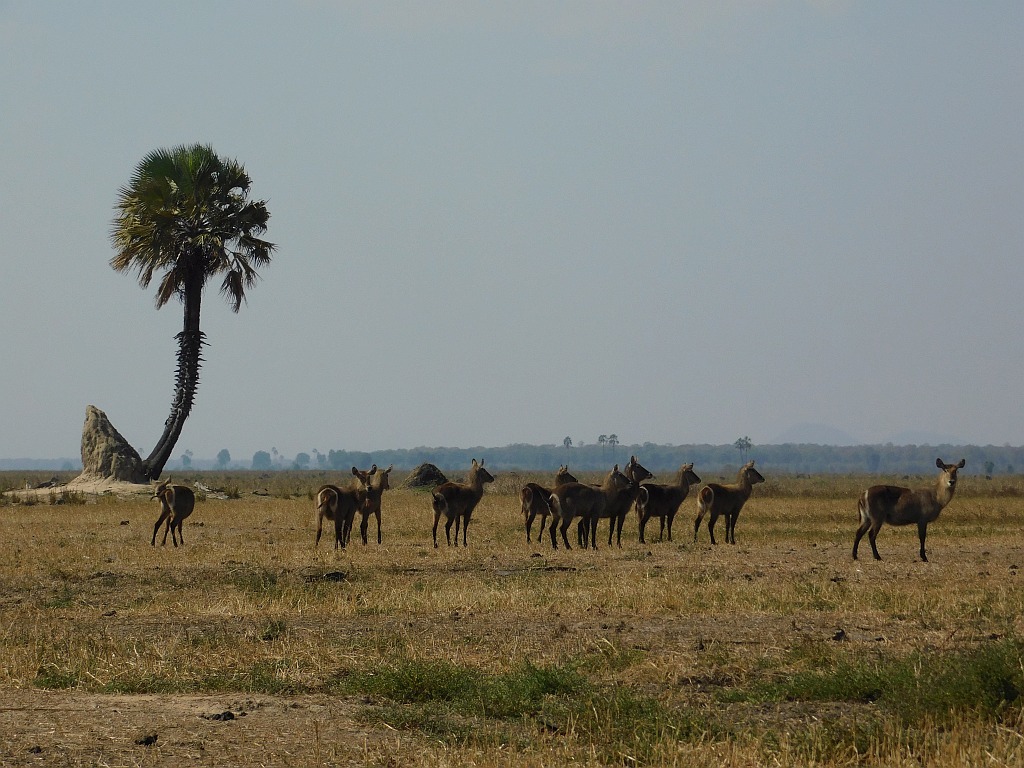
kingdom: Animalia
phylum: Chordata
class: Mammalia
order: Artiodactyla
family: Bovidae
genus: Kobus
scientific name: Kobus ellipsiprymnus
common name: Waterbuck
